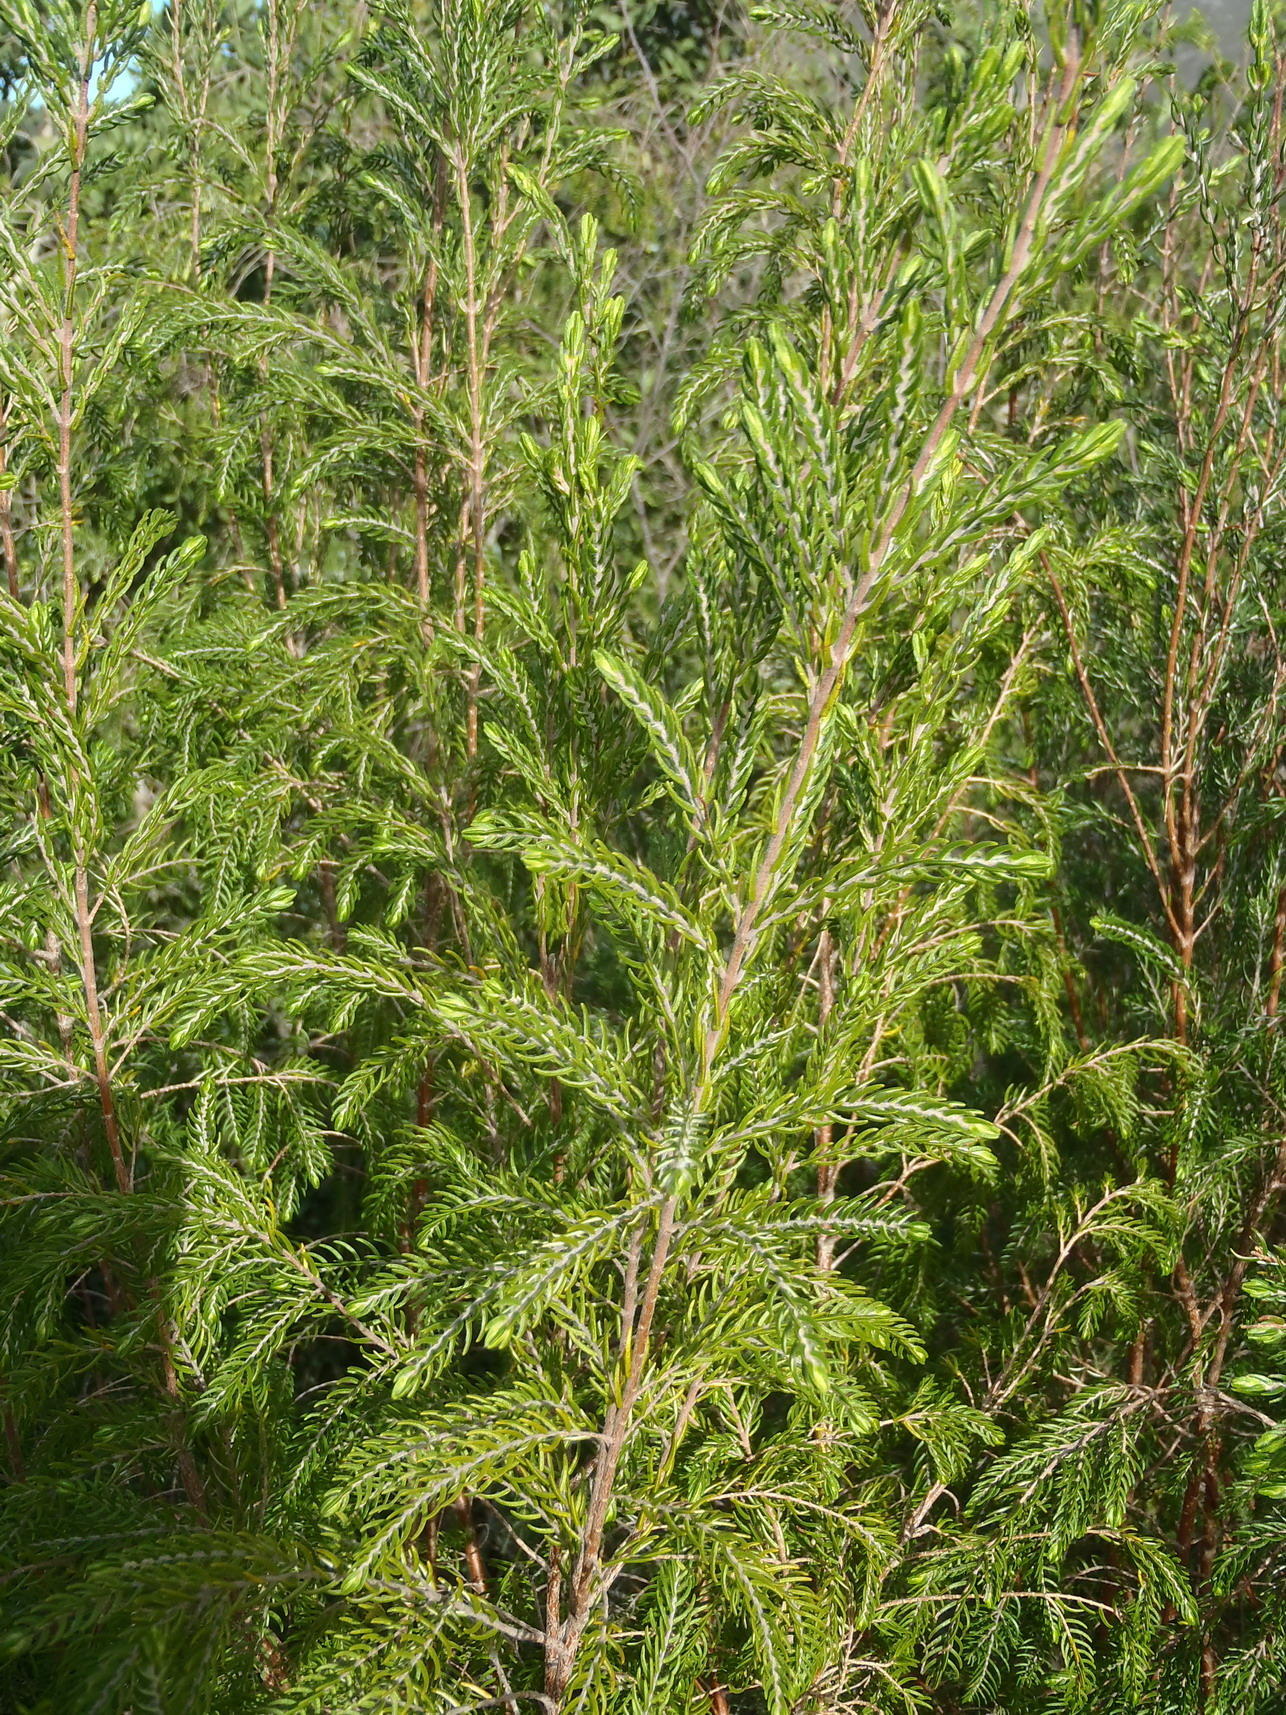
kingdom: Plantae
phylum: Tracheophyta
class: Magnoliopsida
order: Malvales
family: Thymelaeaceae
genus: Passerina
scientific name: Passerina falcifolia
